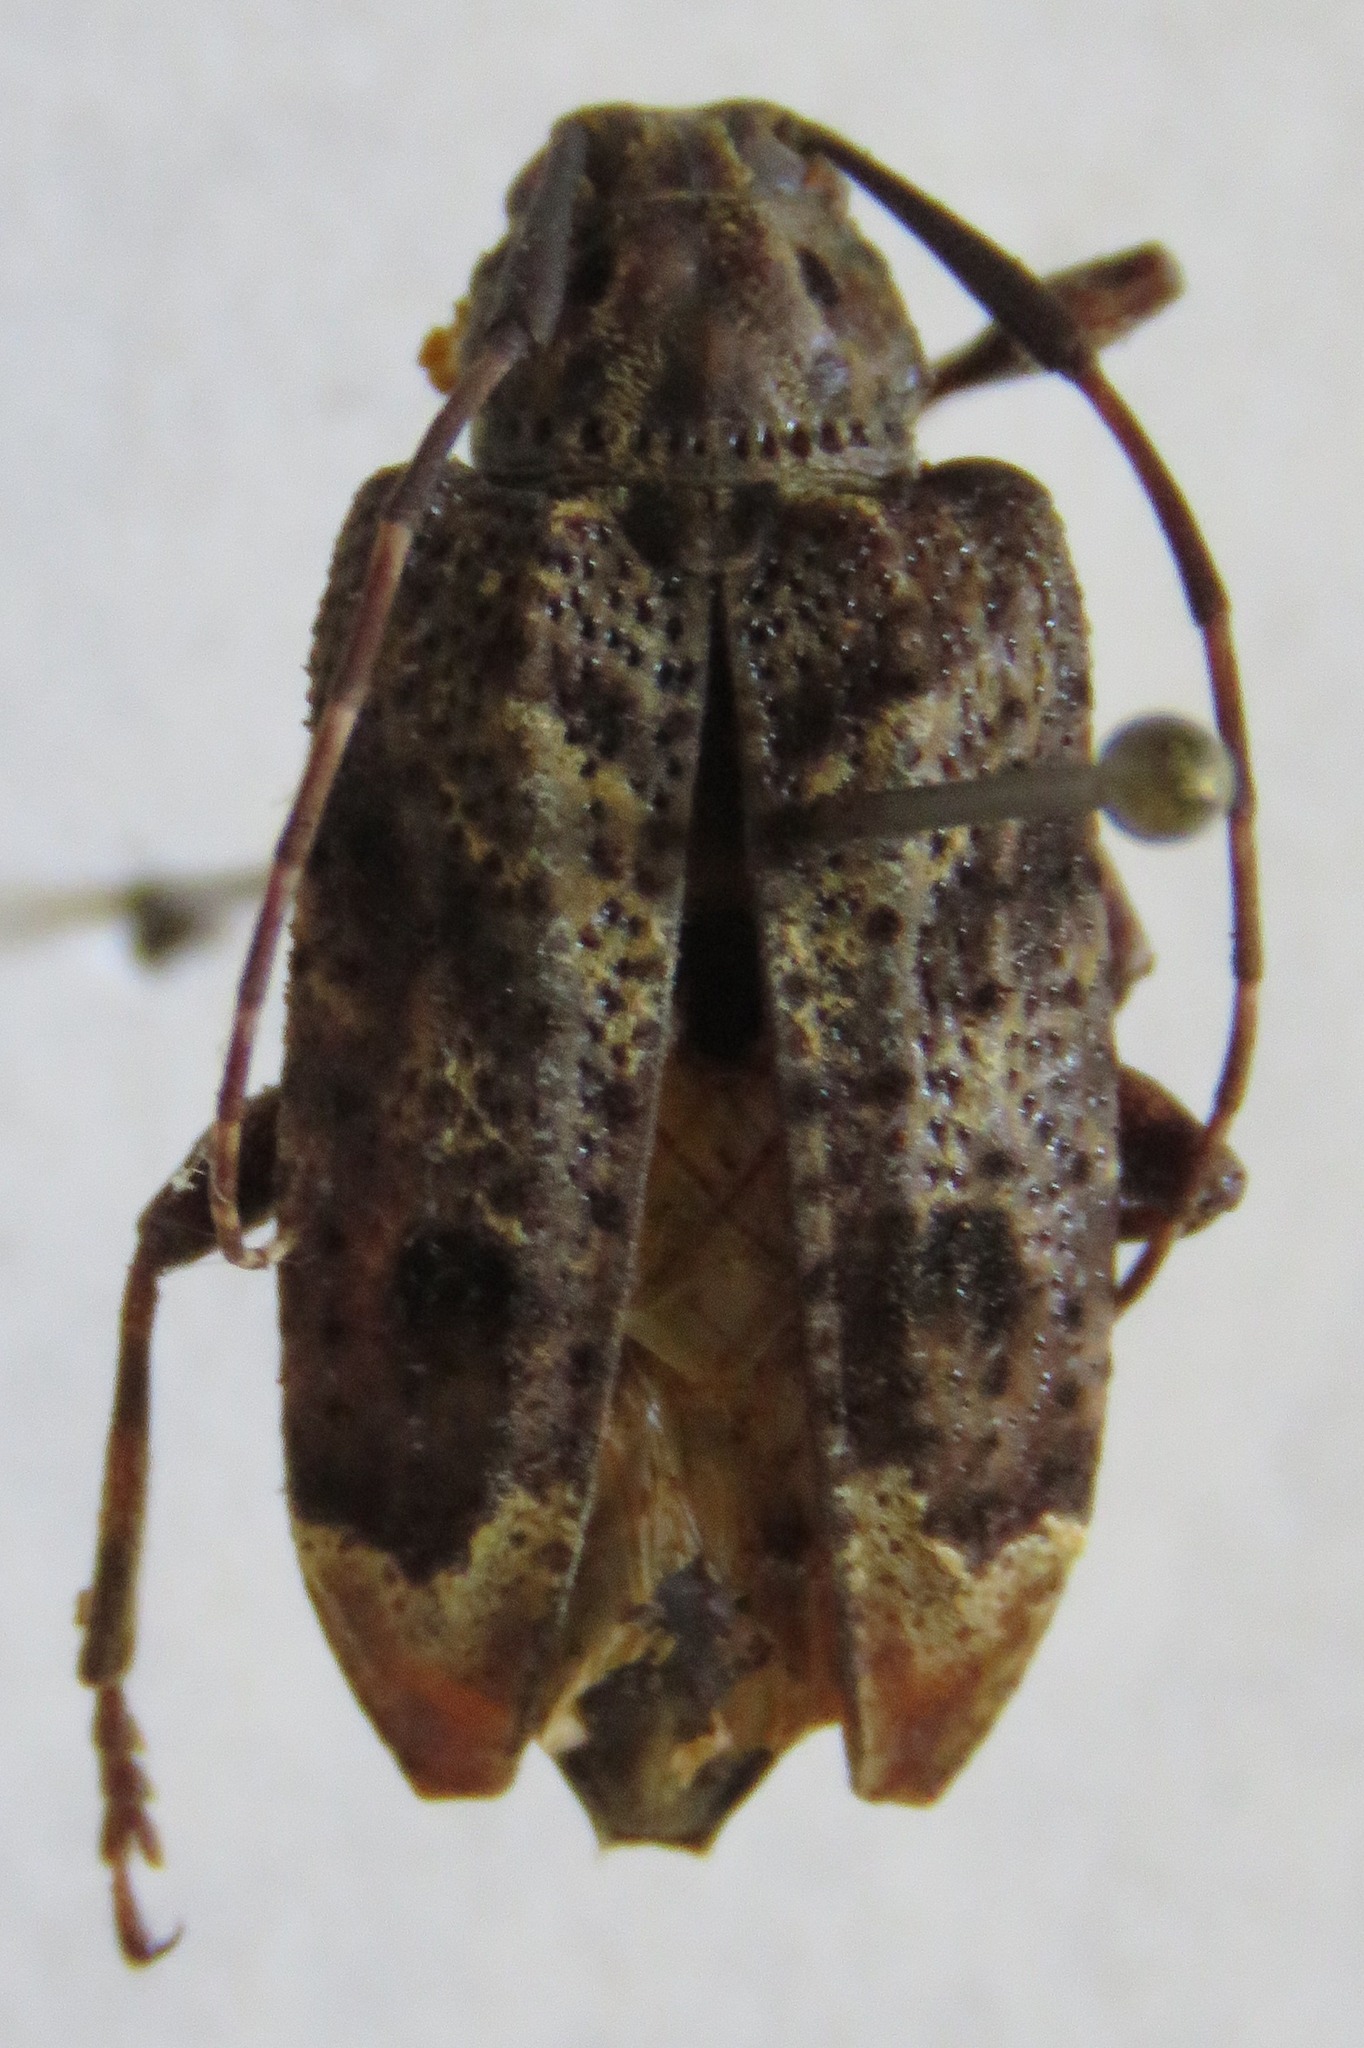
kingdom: Animalia
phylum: Arthropoda
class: Insecta
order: Coleoptera
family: Cerambycidae
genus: Trypanidius
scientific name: Trypanidius mexicanus
